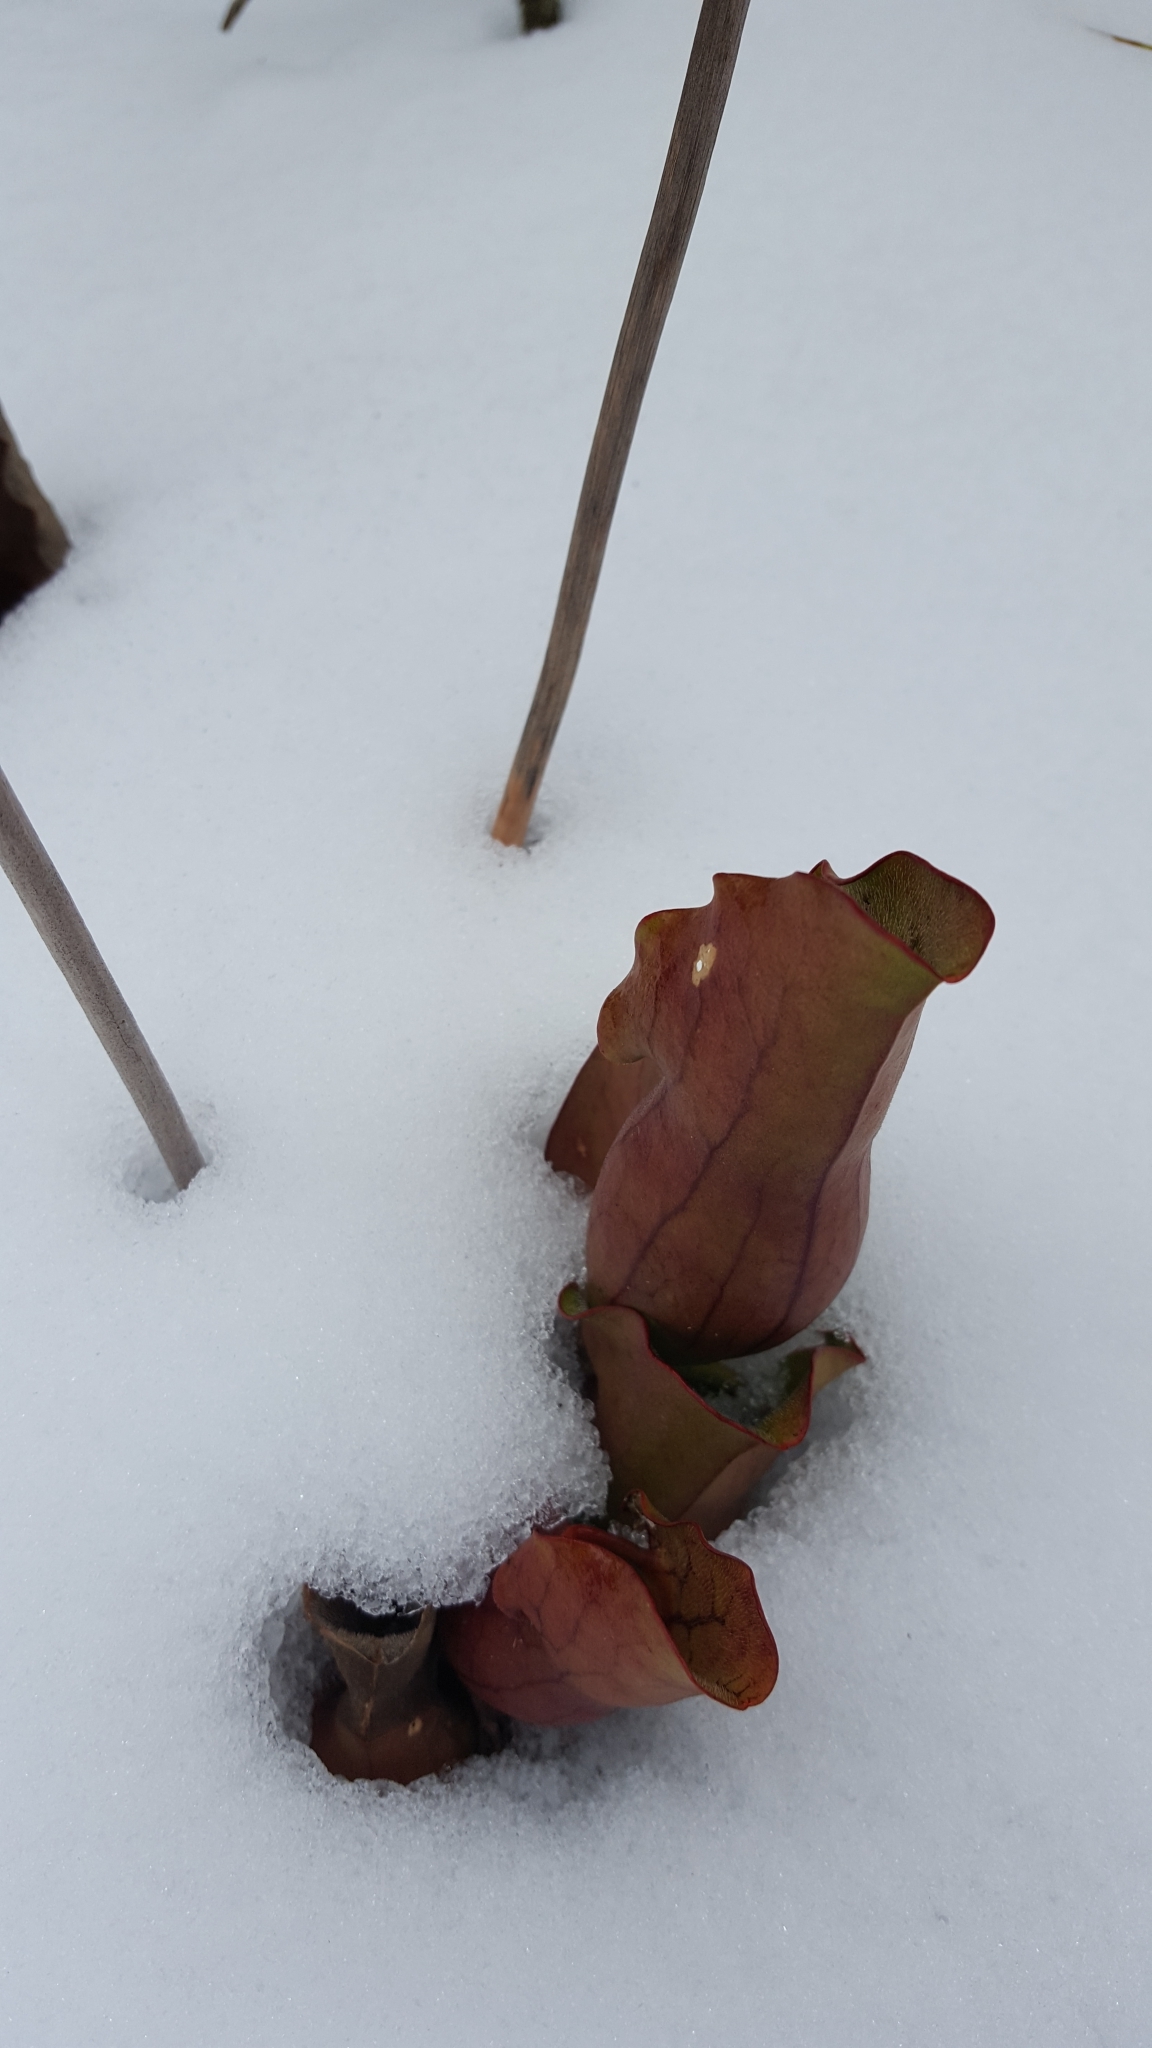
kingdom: Plantae
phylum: Tracheophyta
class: Magnoliopsida
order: Ericales
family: Sarraceniaceae
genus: Sarracenia
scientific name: Sarracenia purpurea
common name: Pitcherplant
